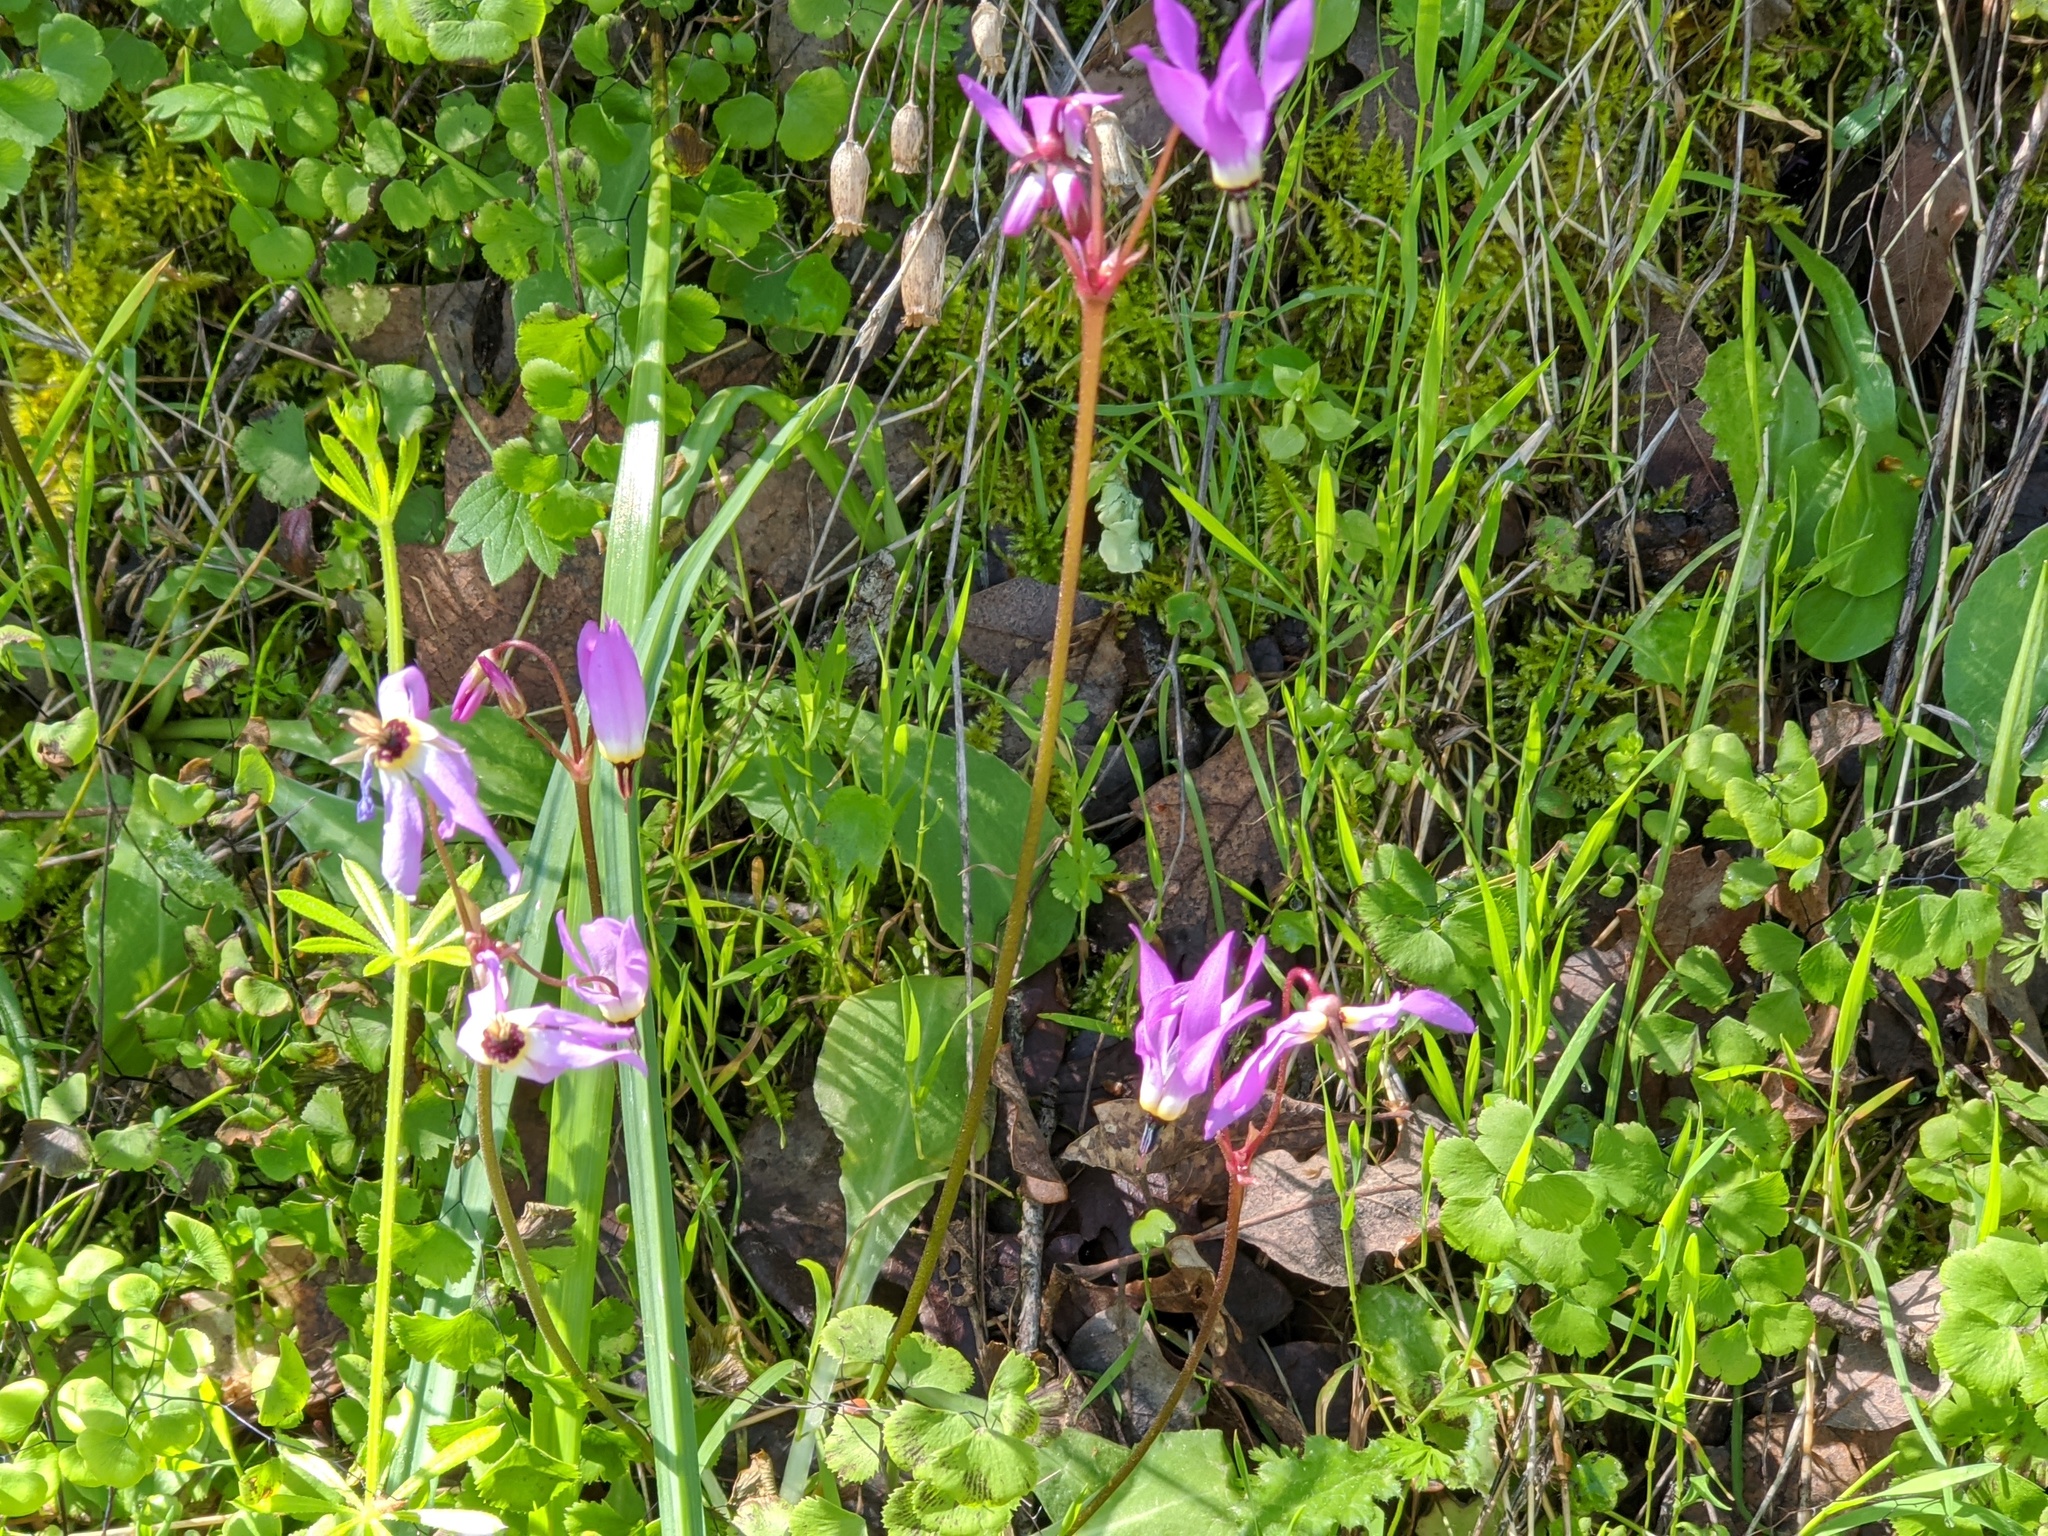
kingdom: Plantae
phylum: Tracheophyta
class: Magnoliopsida
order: Ericales
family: Primulaceae
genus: Dodecatheon
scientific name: Dodecatheon hendersonii
